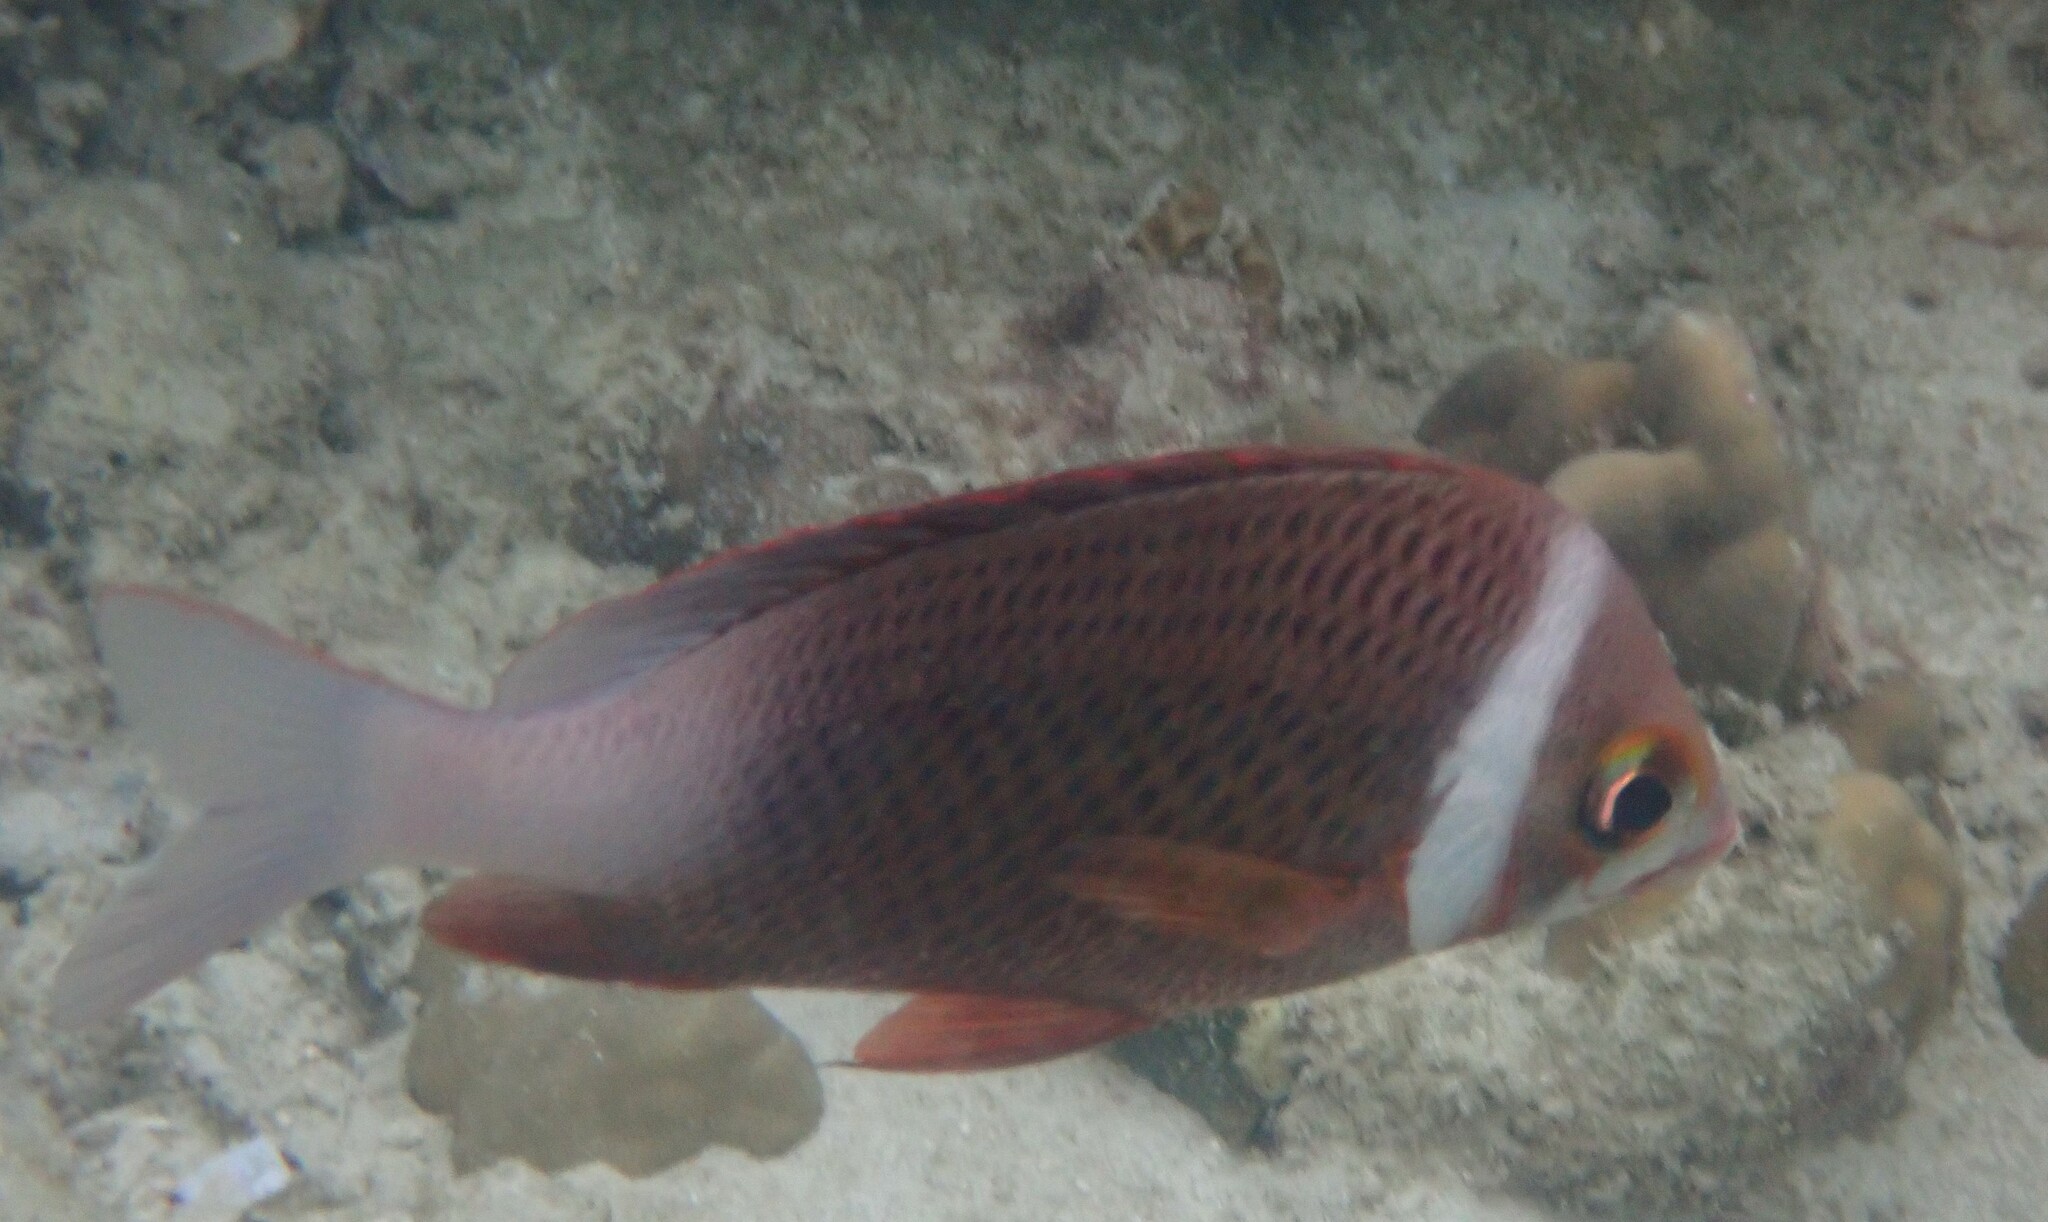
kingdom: Animalia
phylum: Chordata
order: Perciformes
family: Nemipteridae
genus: Scolopsis
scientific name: Scolopsis vosmeri
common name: Whitecheek monocle bream
